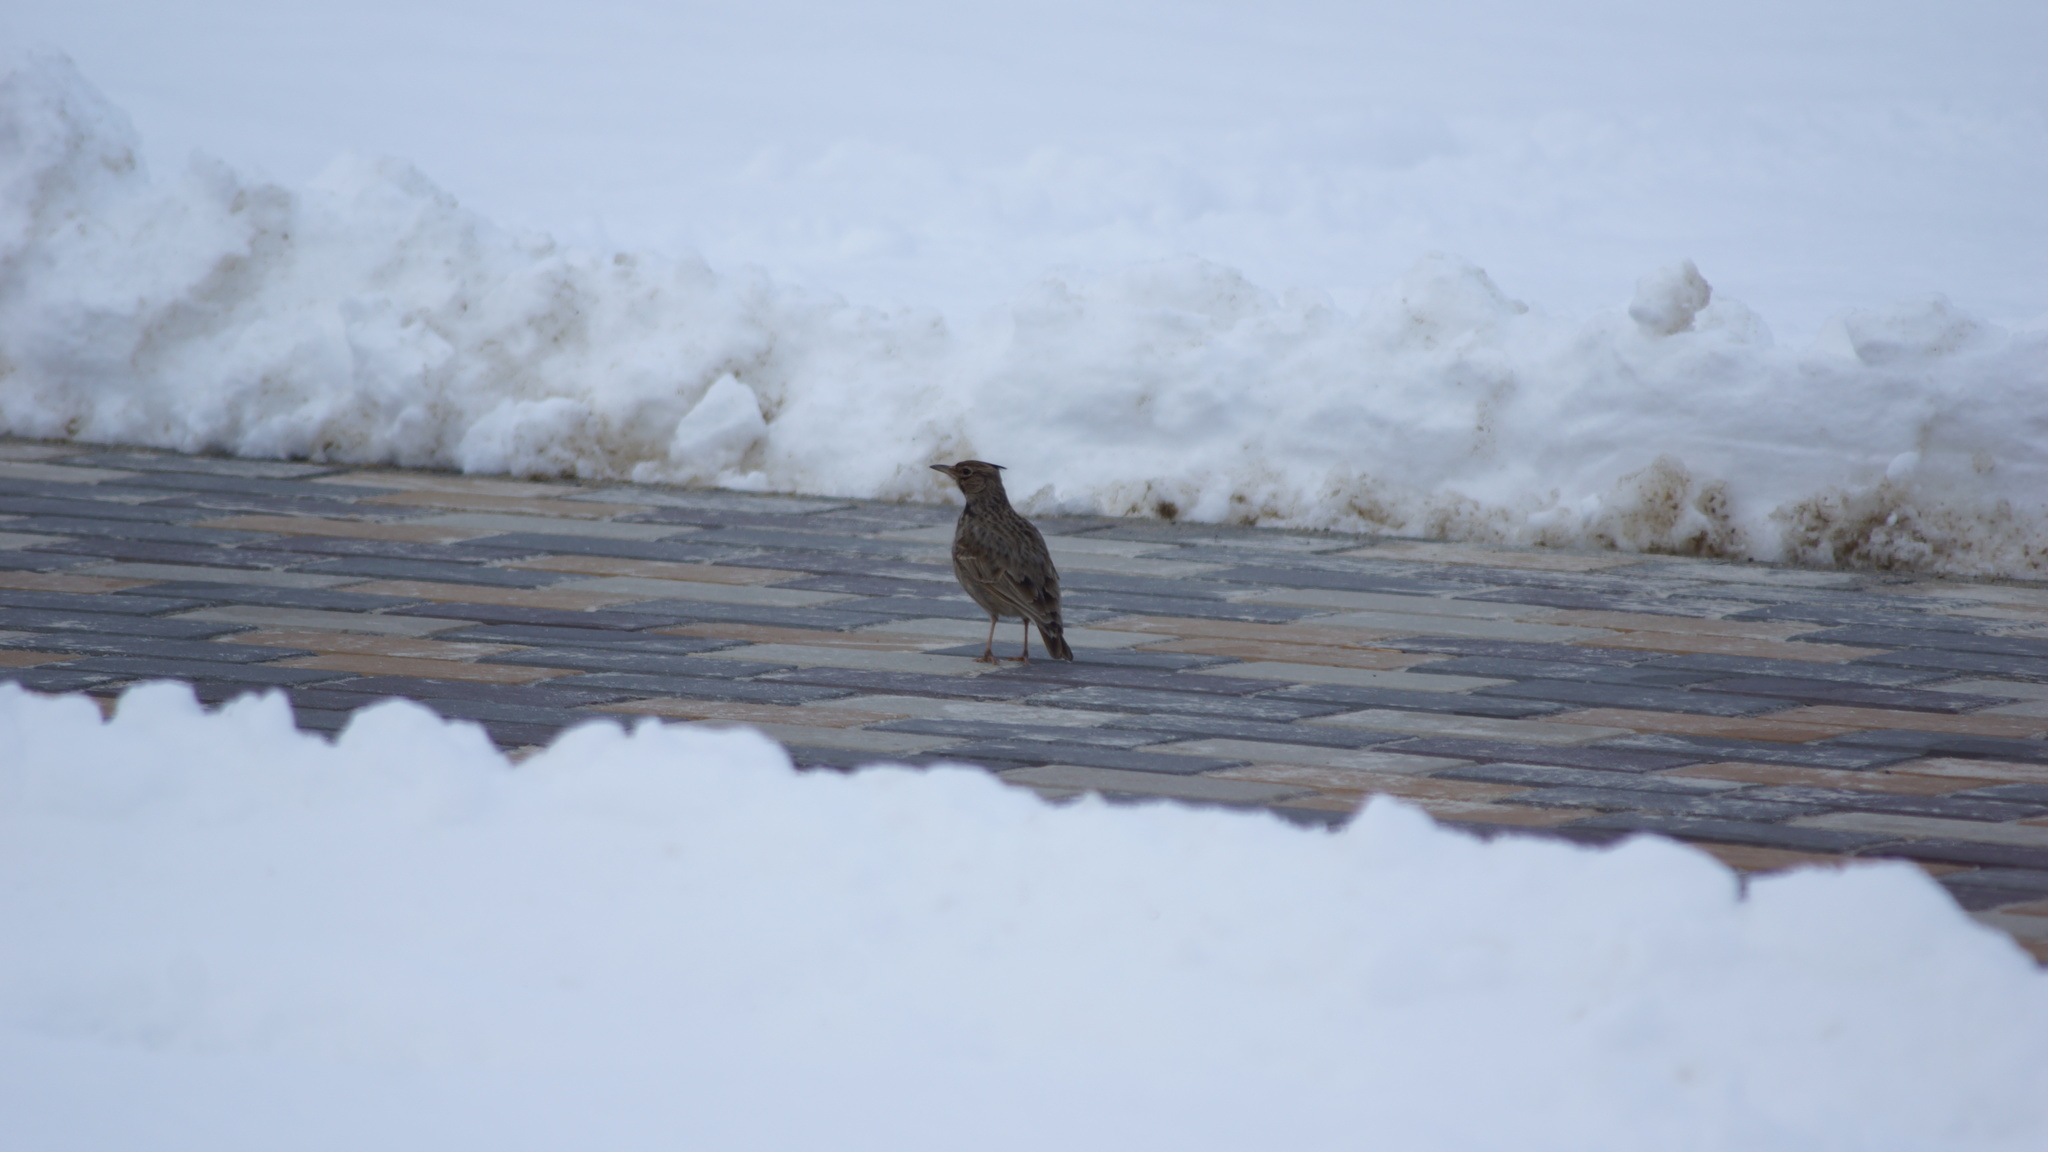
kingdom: Animalia
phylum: Chordata
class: Aves
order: Passeriformes
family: Alaudidae
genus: Galerida
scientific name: Galerida cristata
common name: Crested lark
